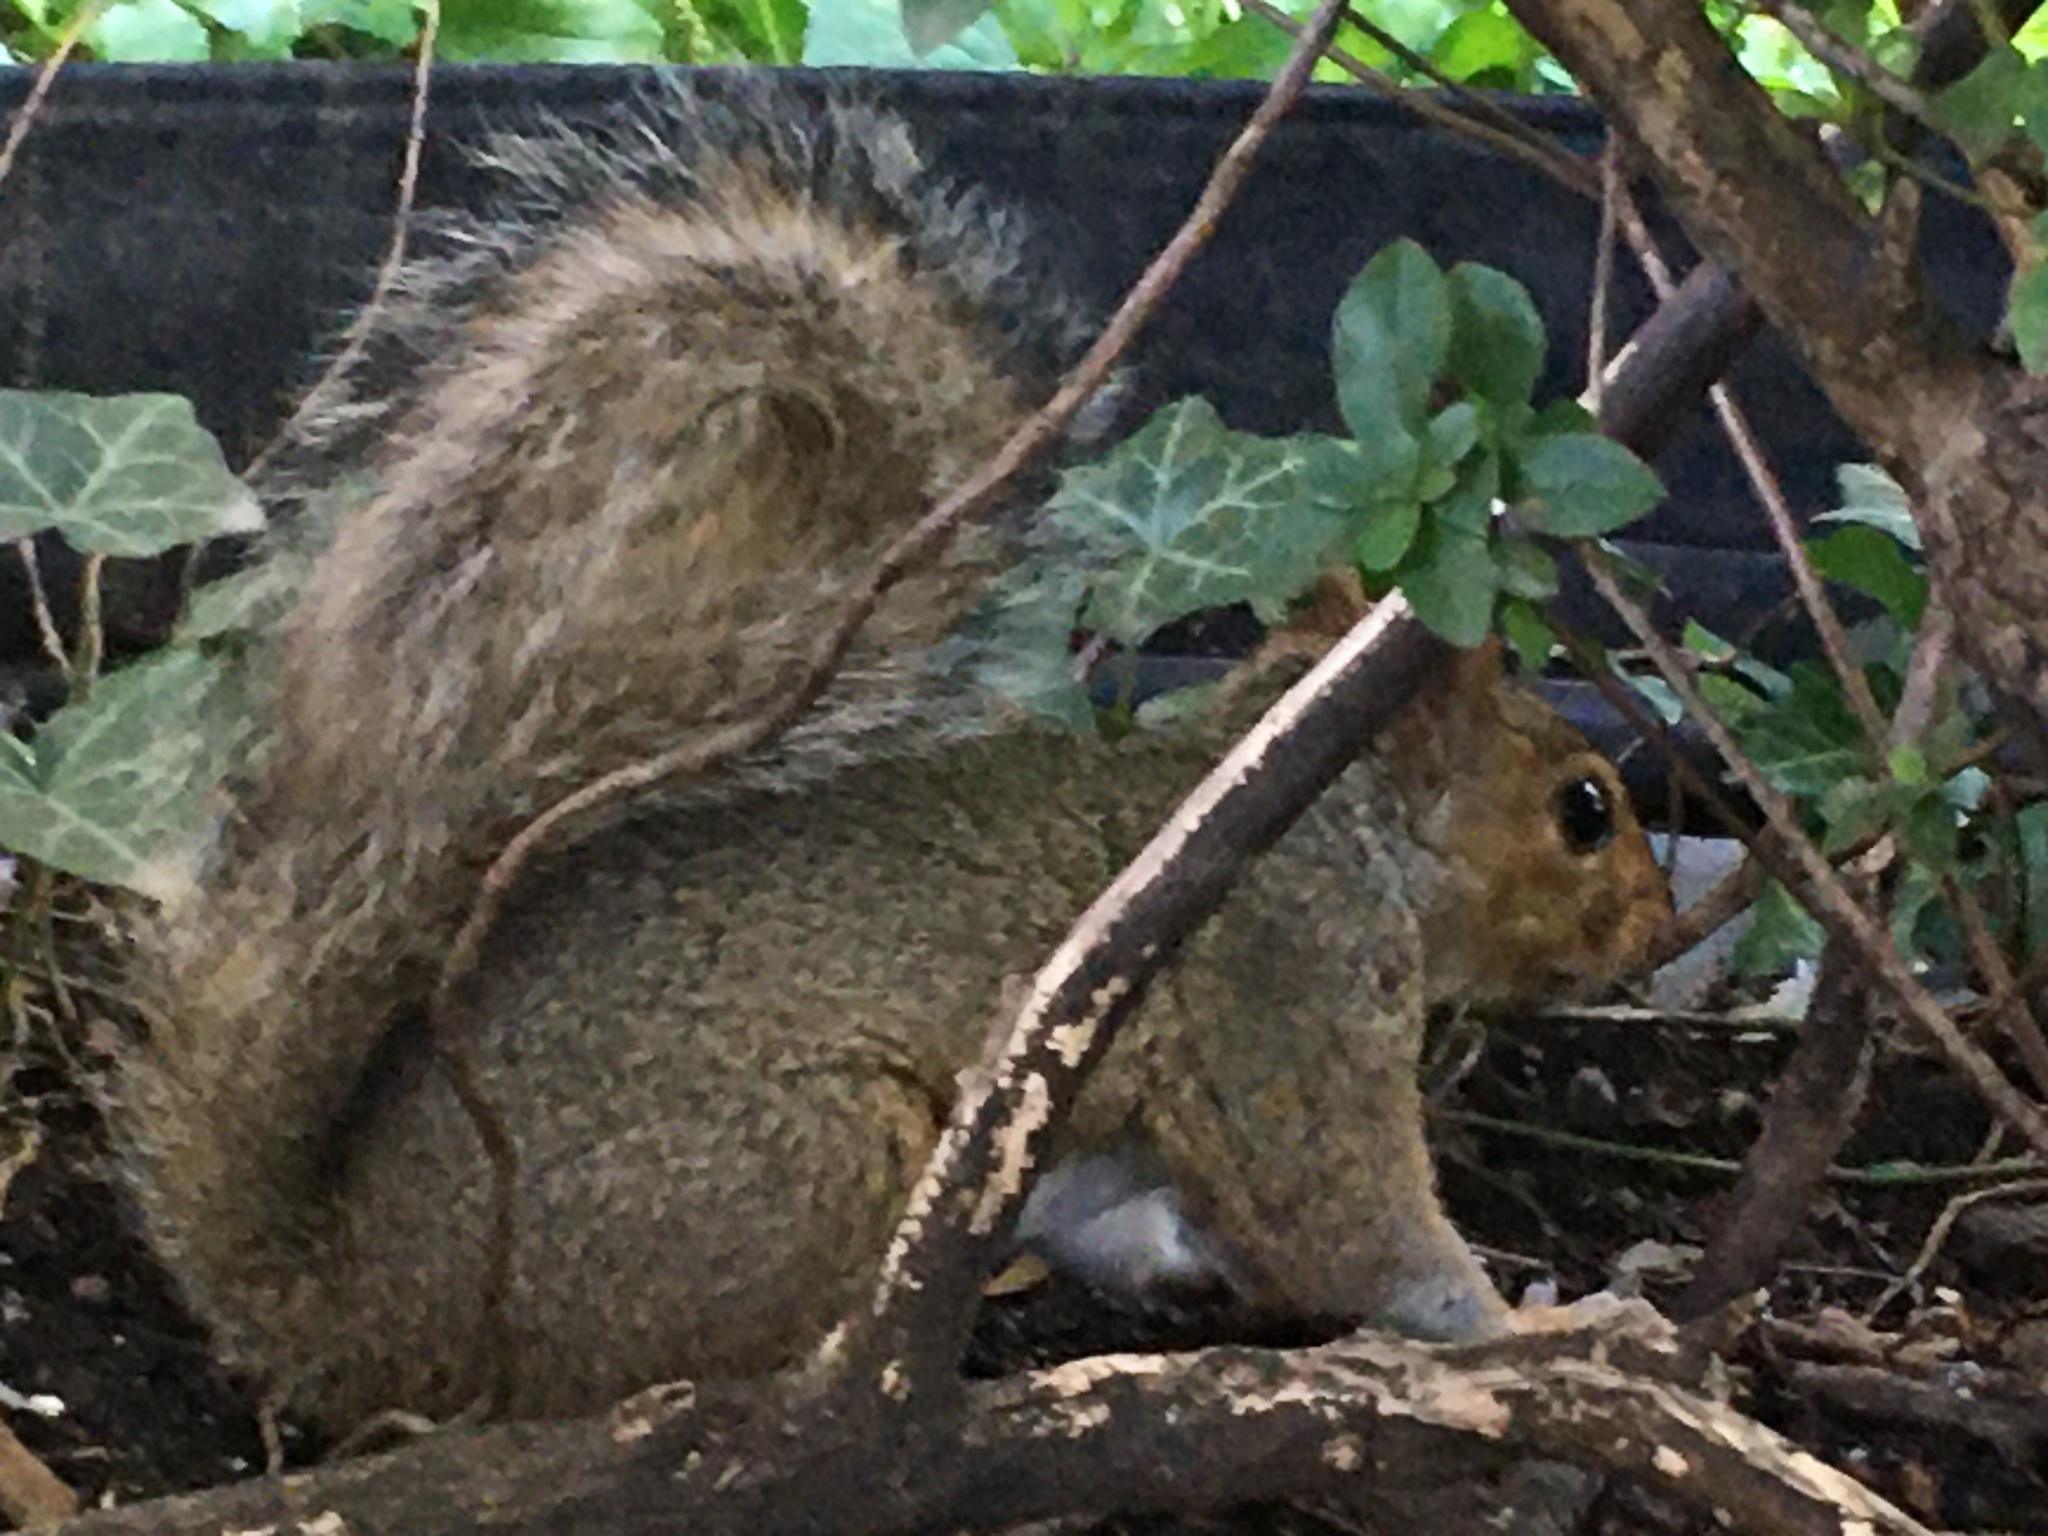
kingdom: Animalia
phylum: Chordata
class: Mammalia
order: Rodentia
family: Sciuridae
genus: Sciurus
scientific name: Sciurus carolinensis
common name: Eastern gray squirrel
